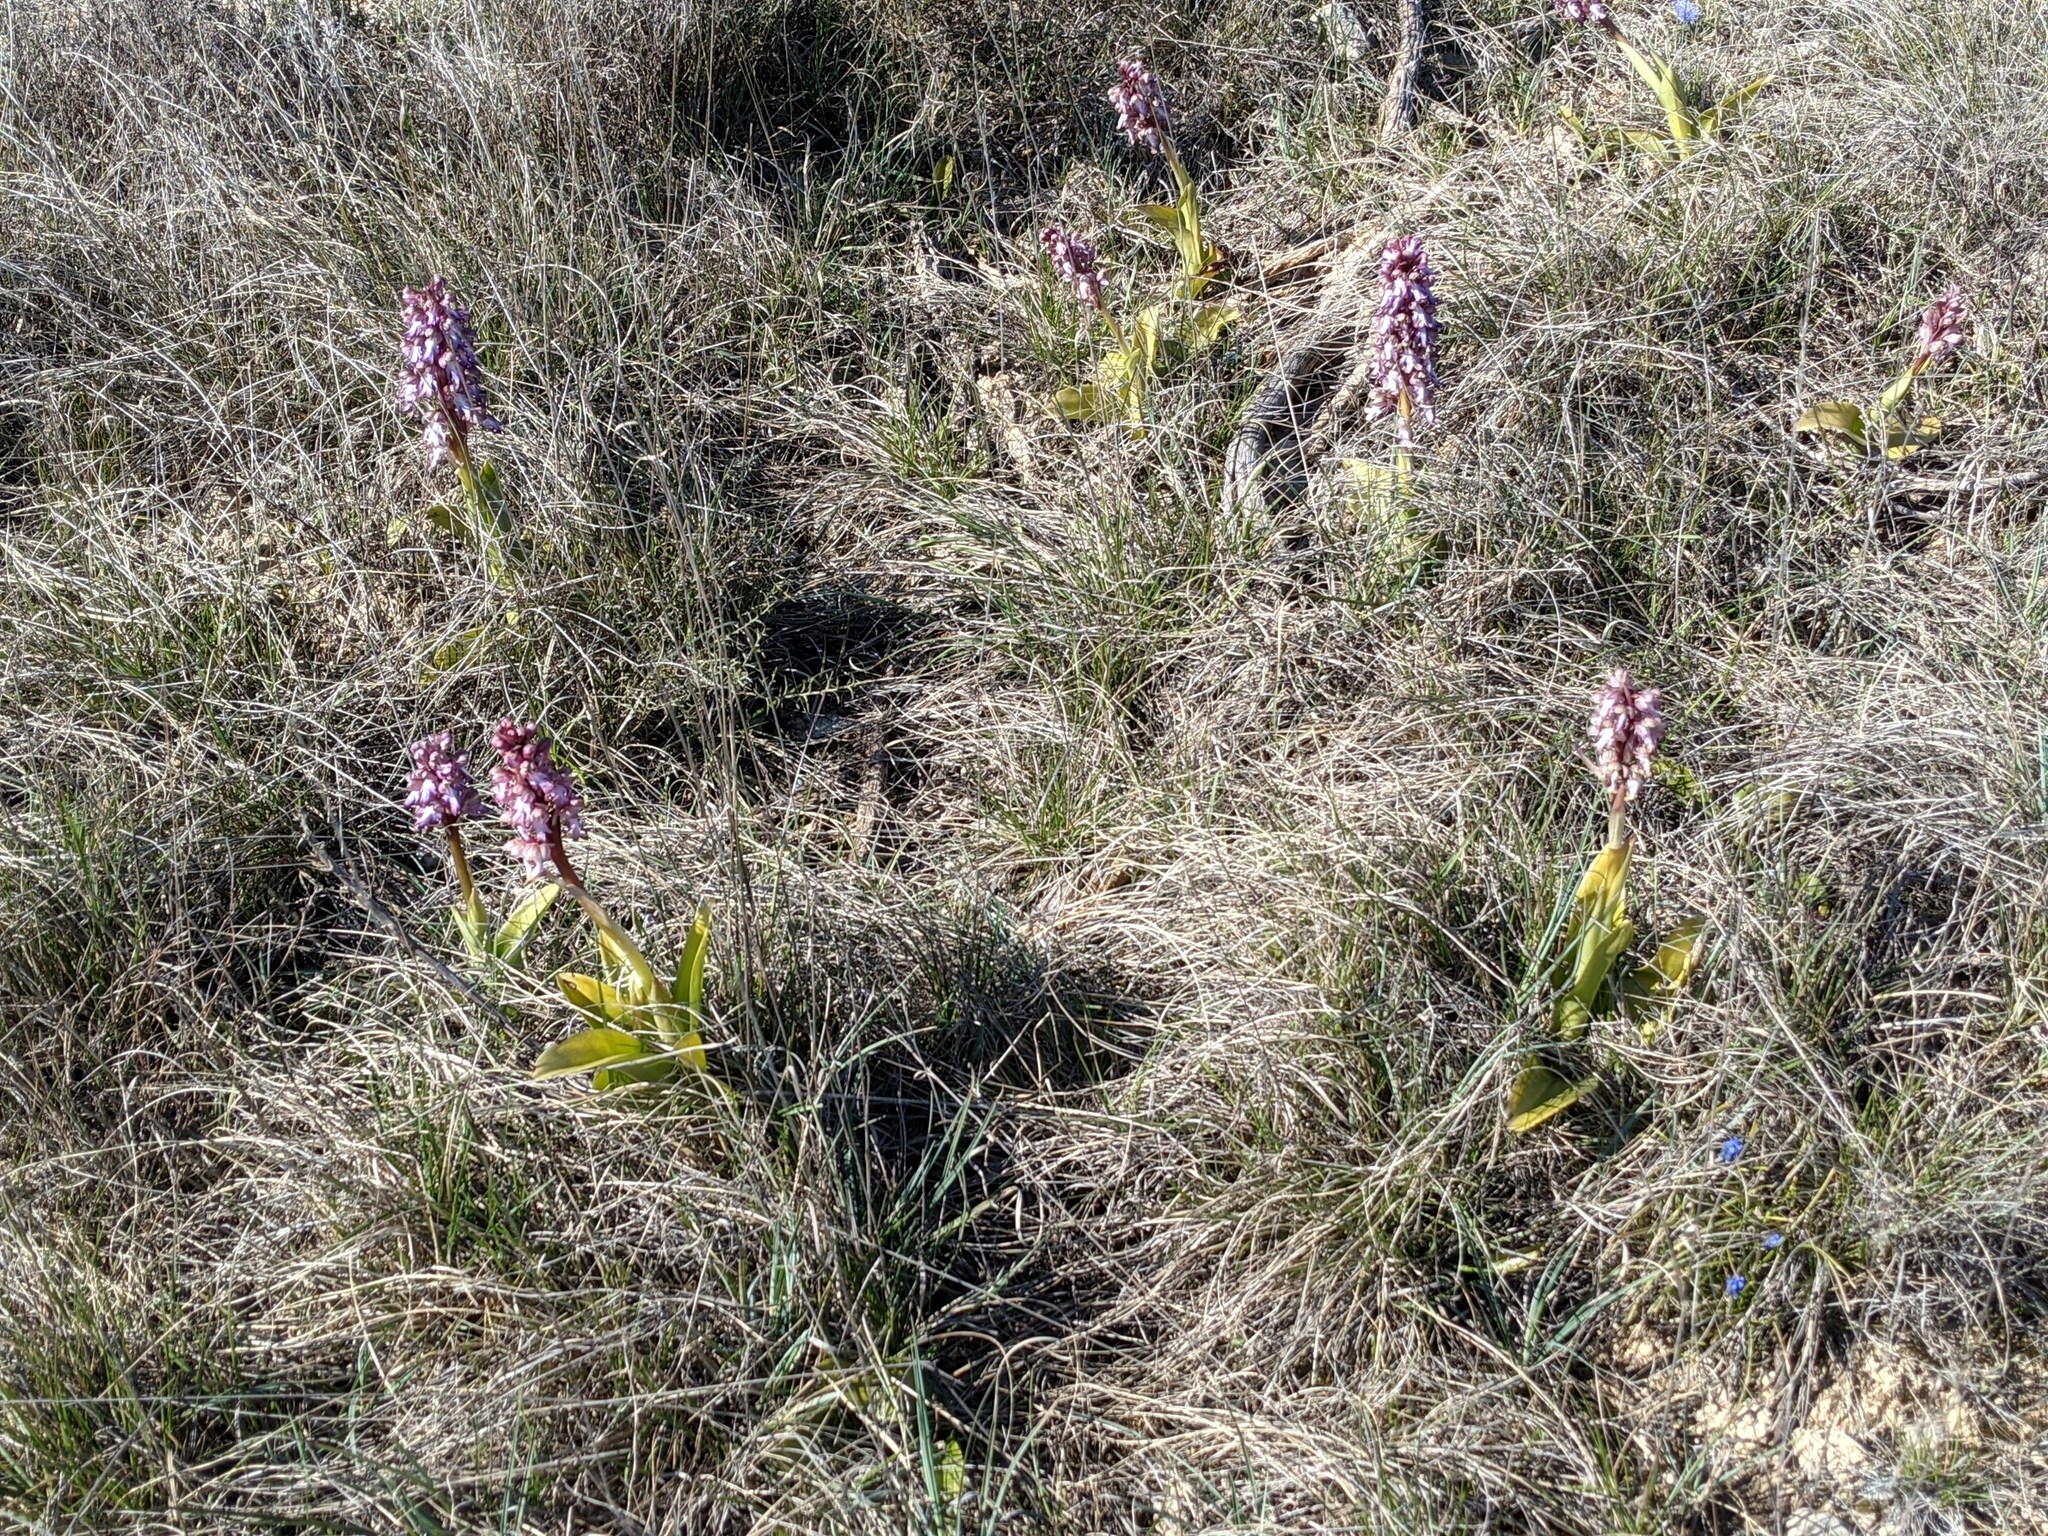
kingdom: Plantae
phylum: Tracheophyta
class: Liliopsida
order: Asparagales
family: Orchidaceae
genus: Himantoglossum
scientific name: Himantoglossum robertianum
